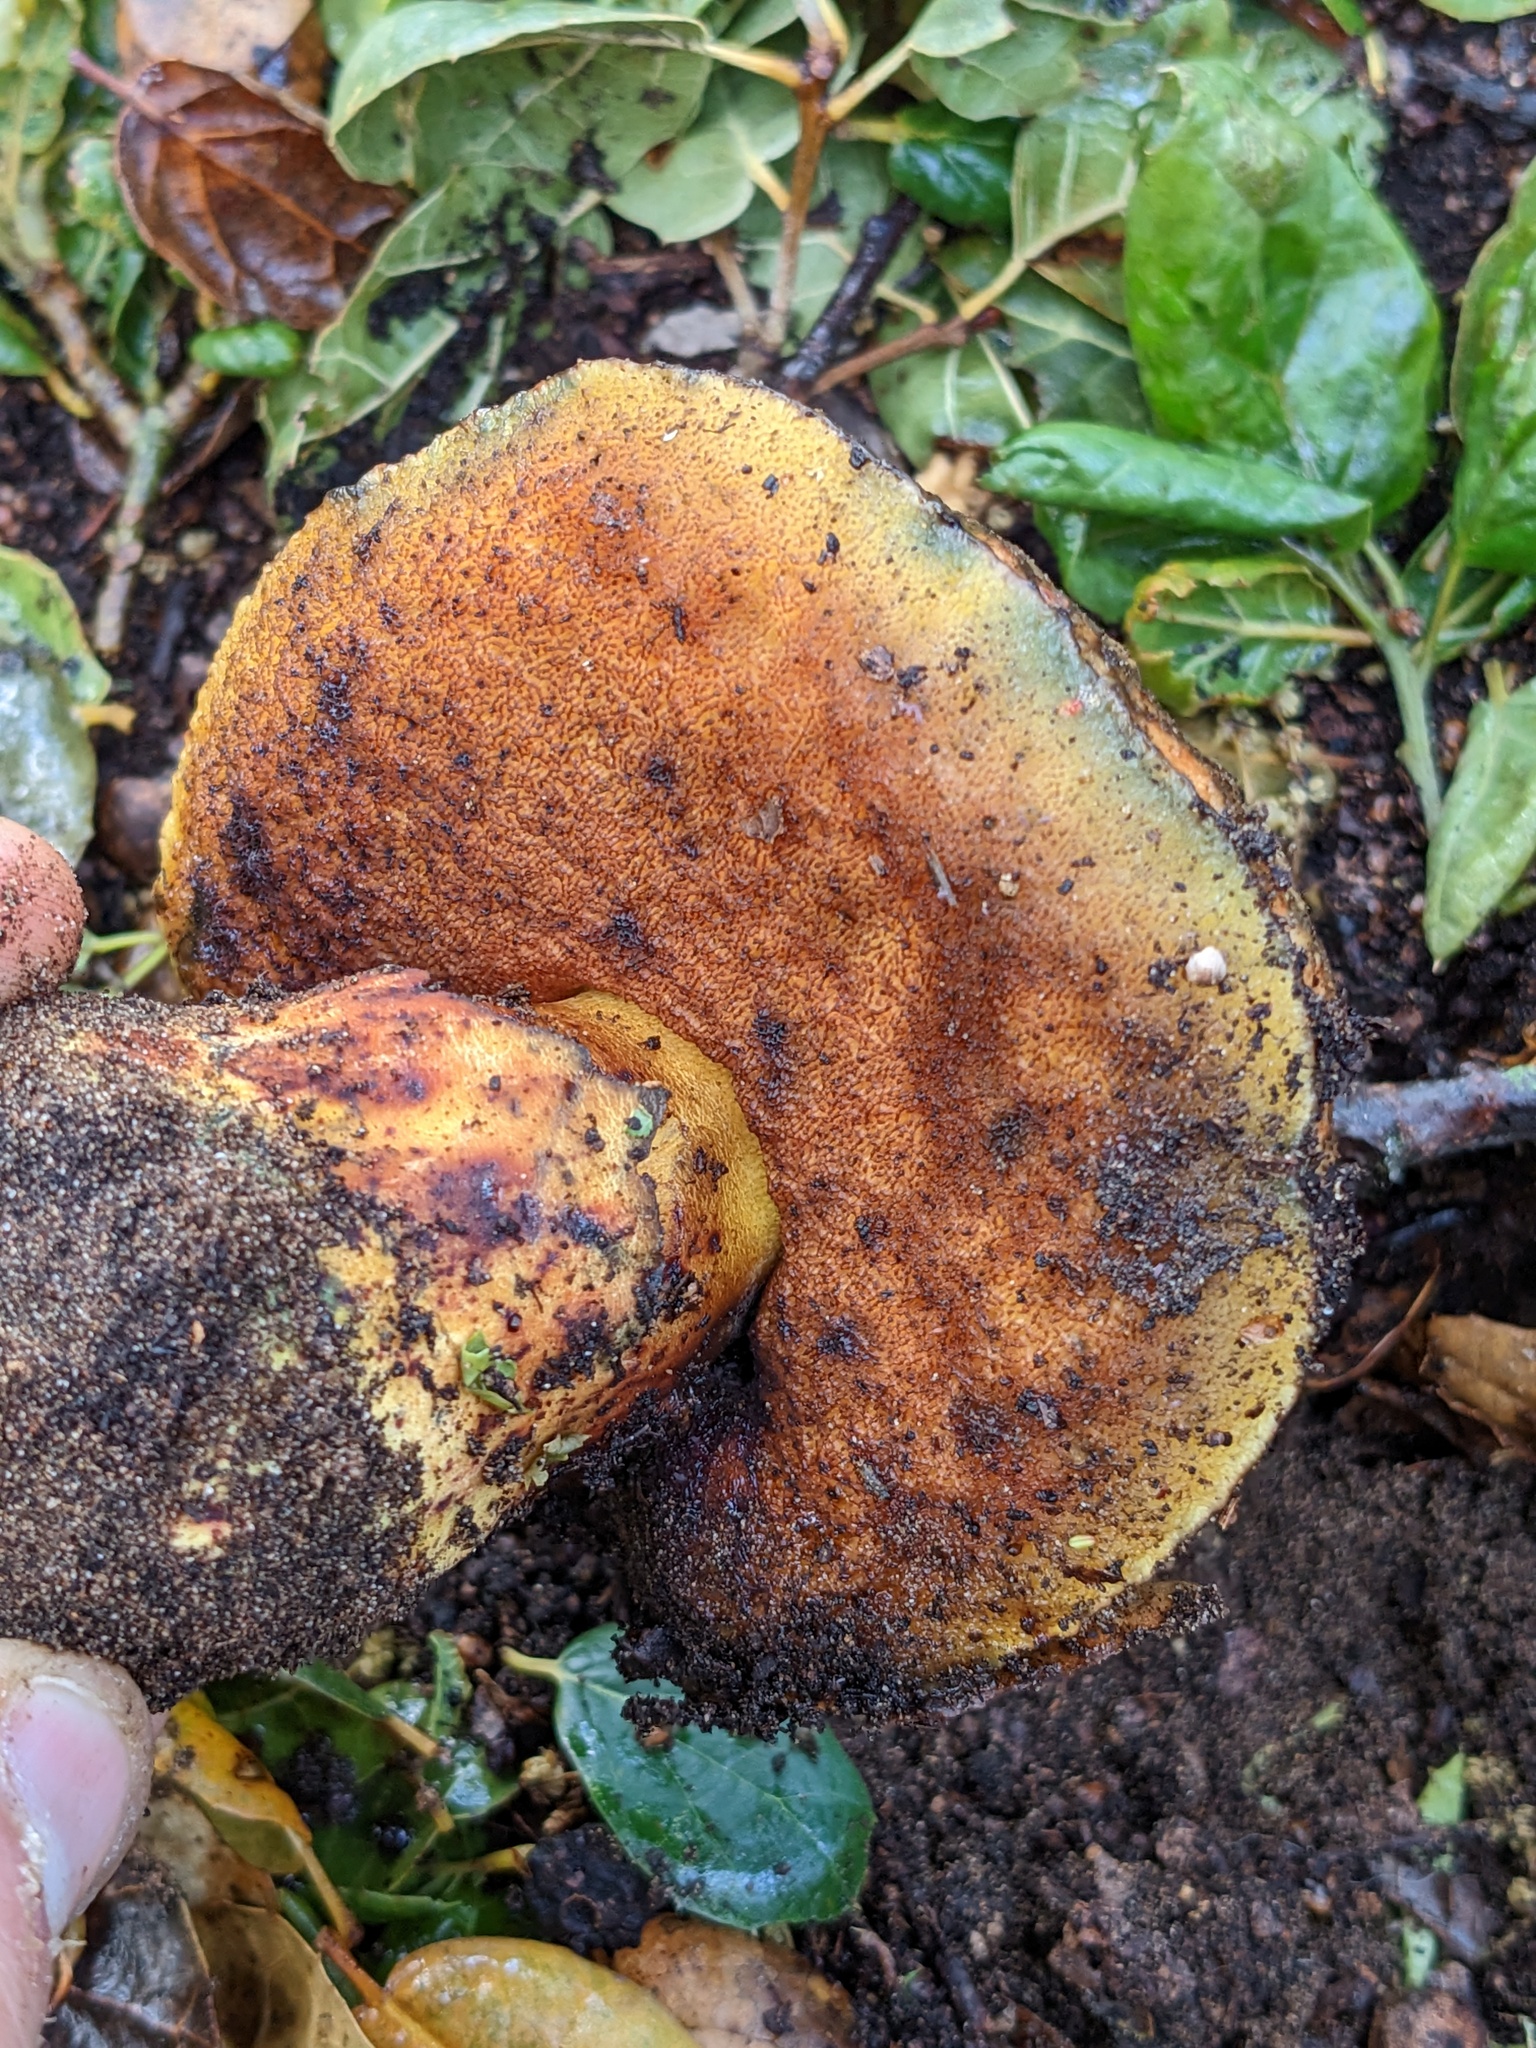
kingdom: Fungi
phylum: Basidiomycota
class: Agaricomycetes
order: Boletales
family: Boletaceae
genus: Suillellus
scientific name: Suillellus amygdalinus
